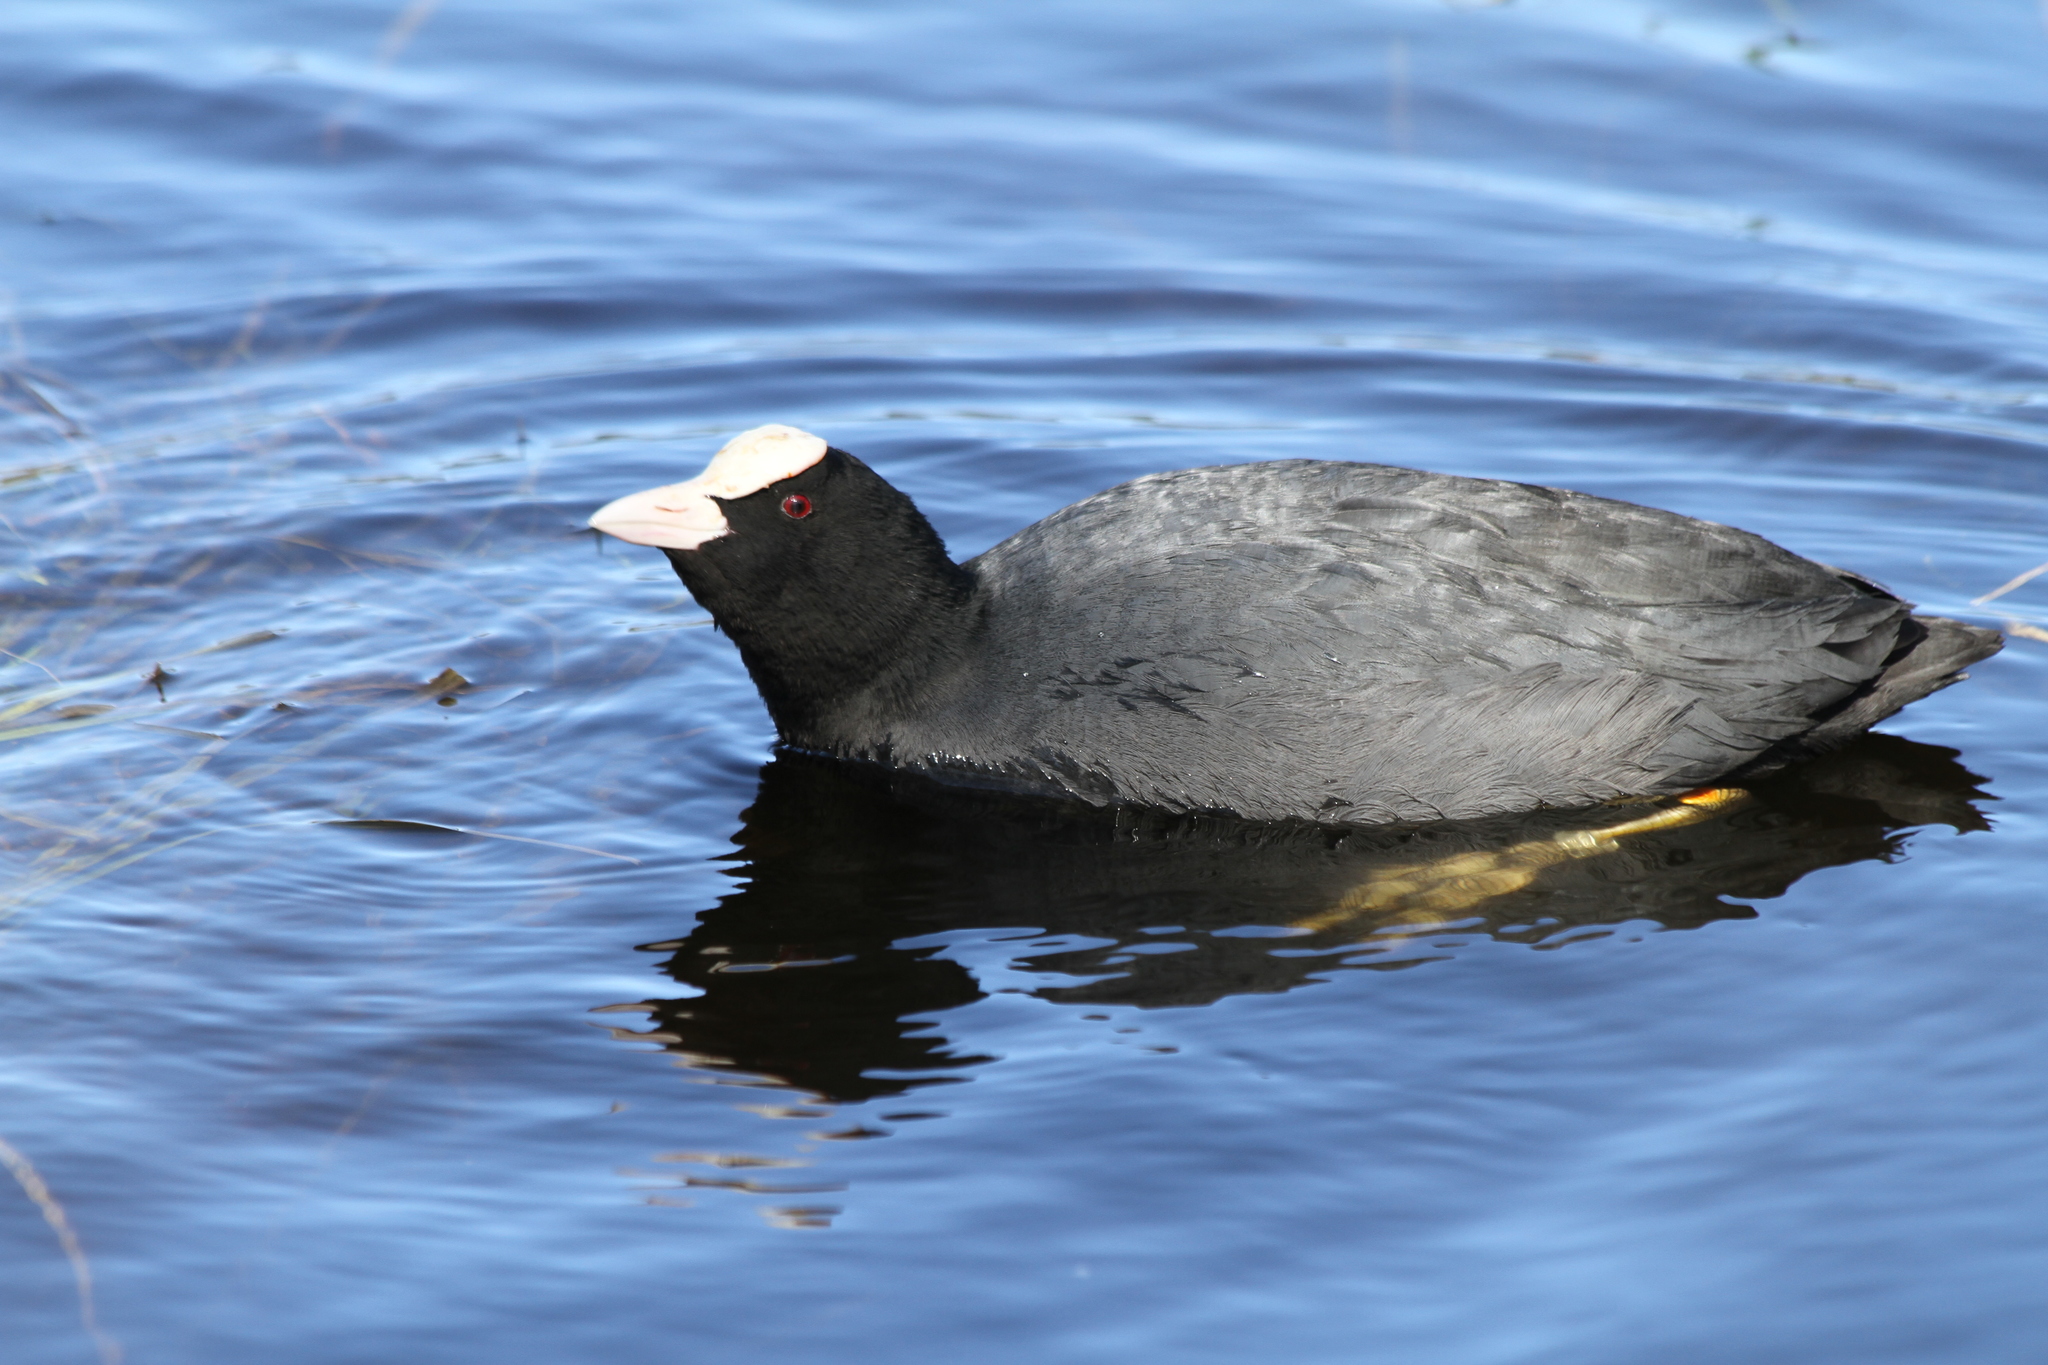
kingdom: Animalia
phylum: Chordata
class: Aves
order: Gruiformes
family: Rallidae
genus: Fulica
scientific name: Fulica atra
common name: Eurasian coot
